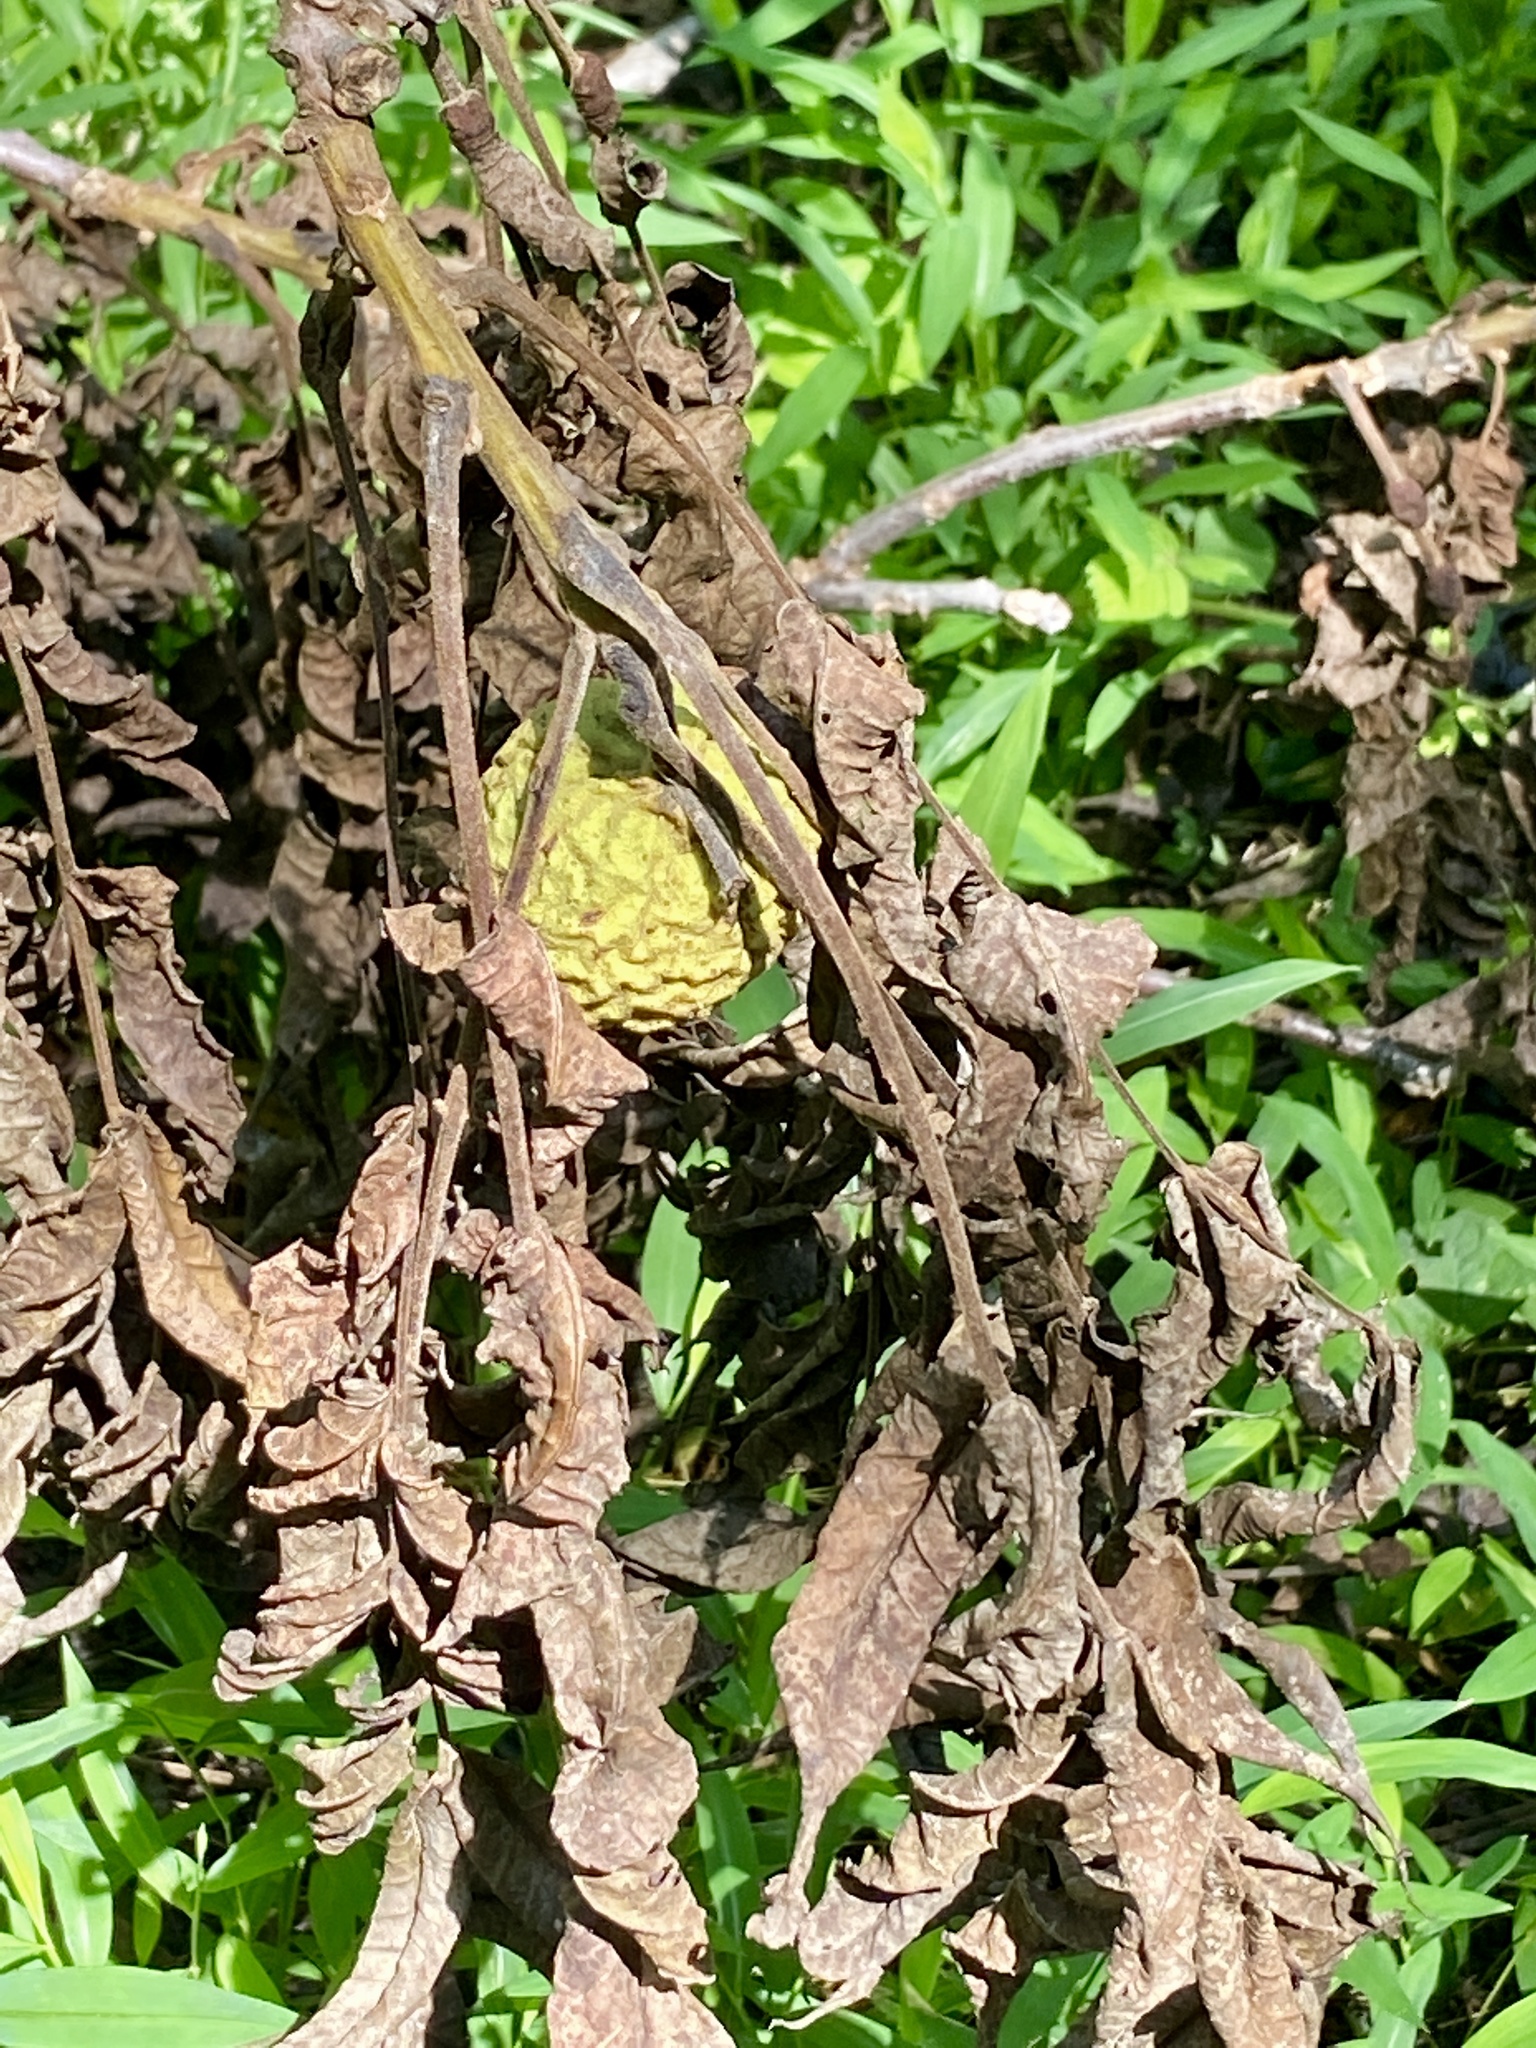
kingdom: Plantae
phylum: Tracheophyta
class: Magnoliopsida
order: Fagales
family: Juglandaceae
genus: Juglans
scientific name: Juglans nigra
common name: Black walnut
